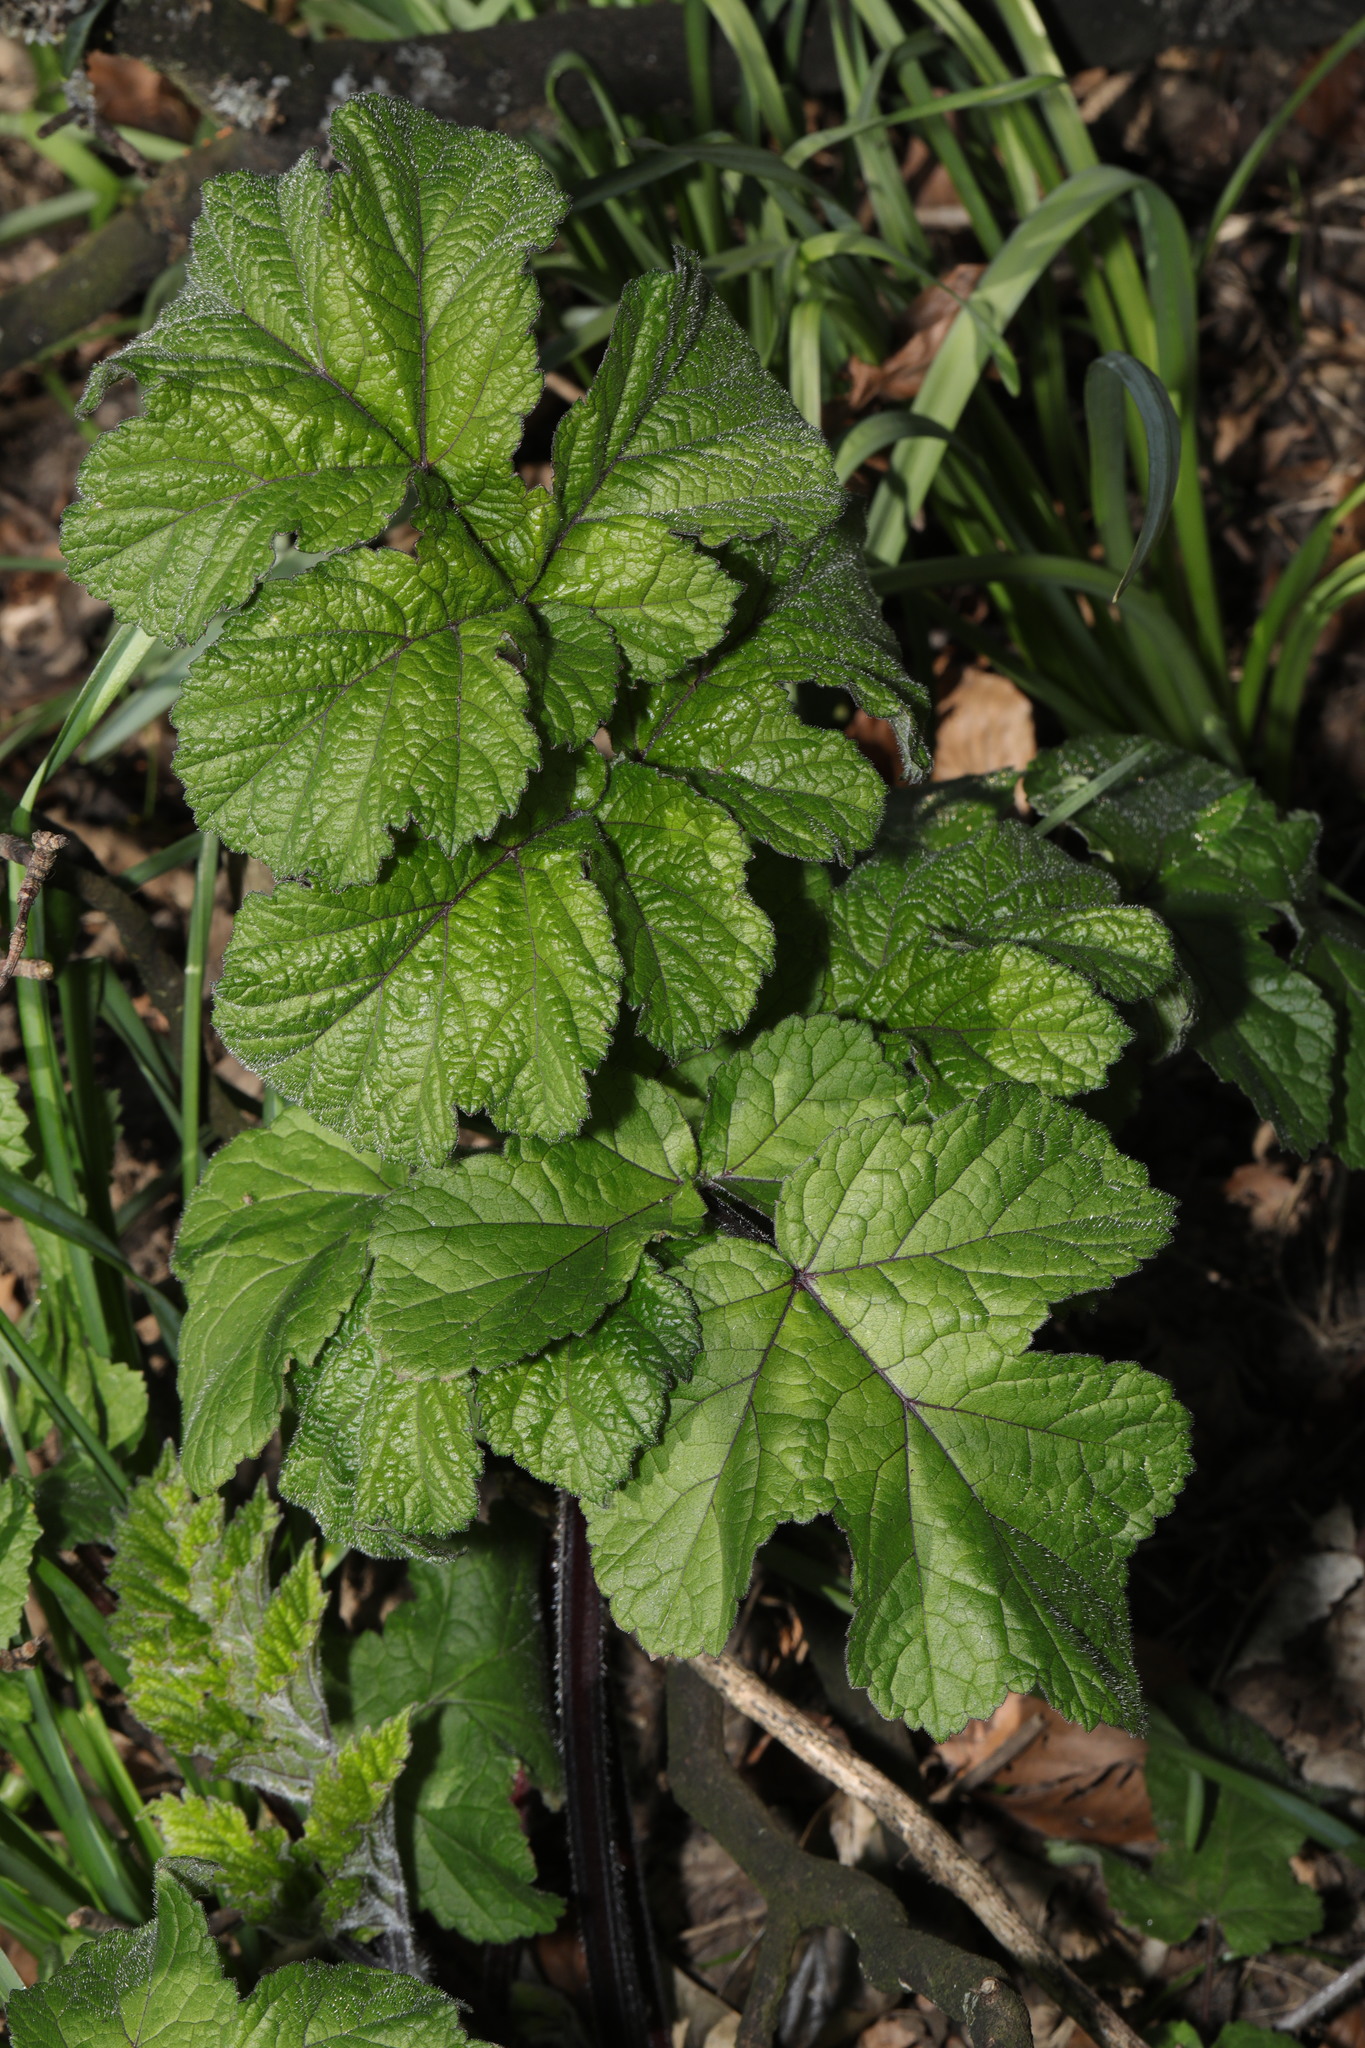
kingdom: Plantae
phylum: Tracheophyta
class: Magnoliopsida
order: Apiales
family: Apiaceae
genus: Heracleum
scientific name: Heracleum sphondylium
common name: Hogweed
